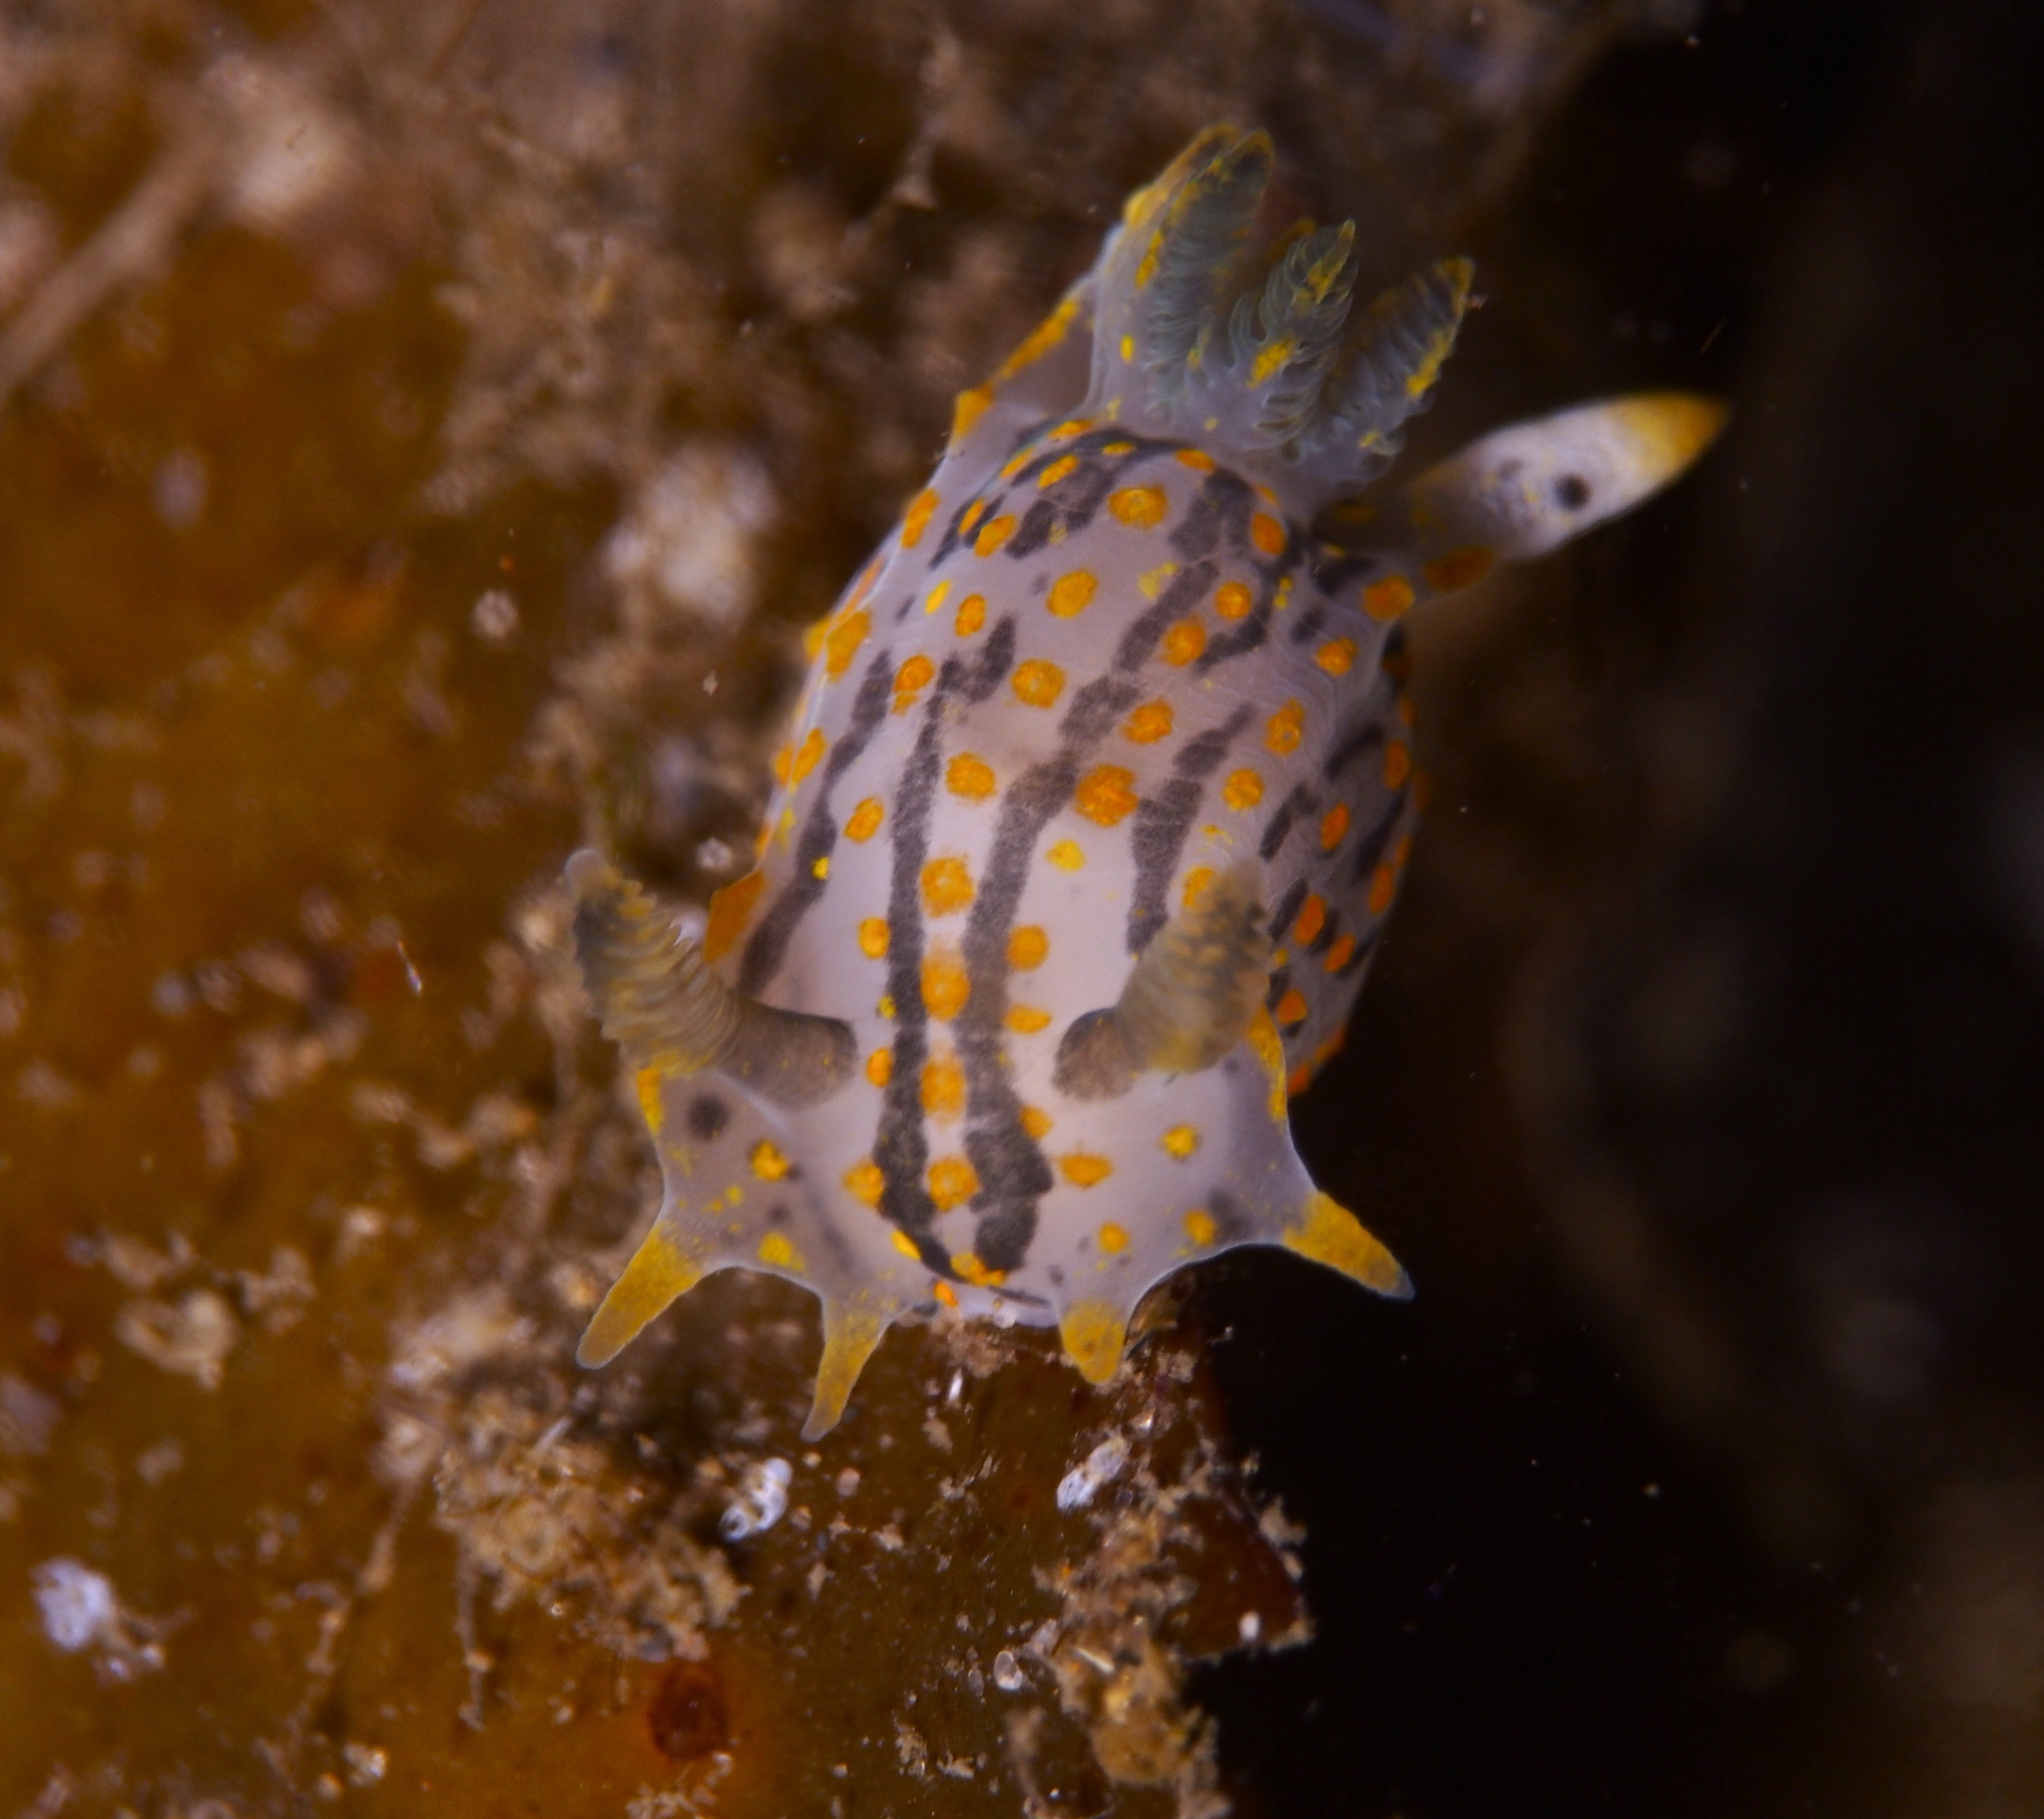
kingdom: Animalia
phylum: Mollusca
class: Gastropoda
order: Nudibranchia
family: Polyceridae
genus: Polycera
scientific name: Polycera quadrilineata
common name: Four-striped polycera
